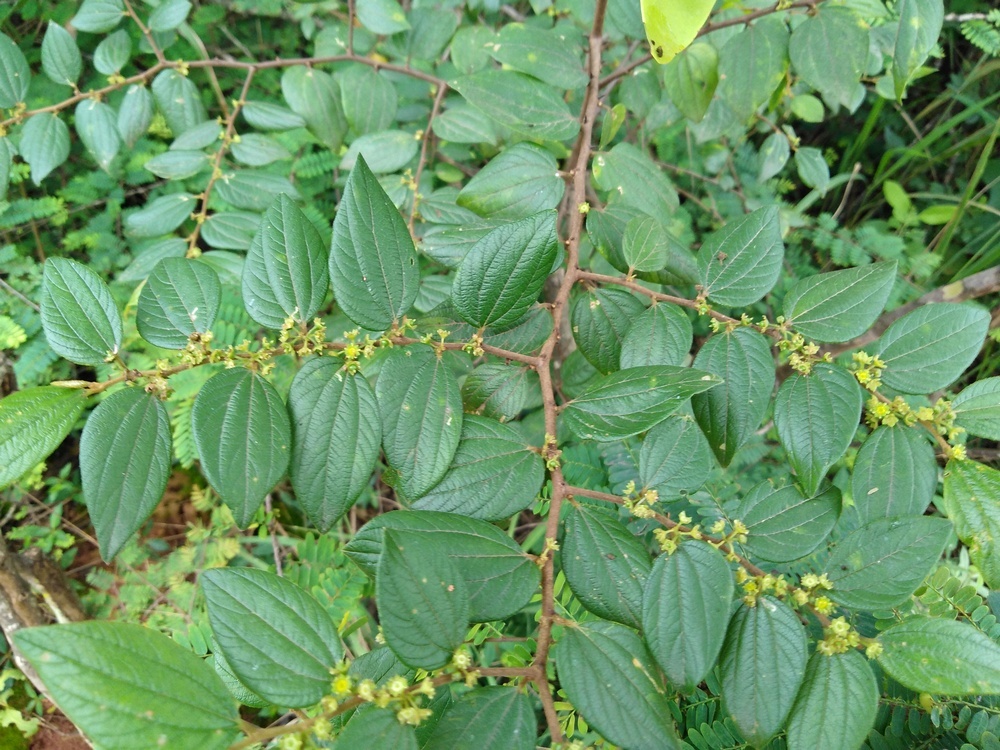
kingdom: Plantae
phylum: Tracheophyta
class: Magnoliopsida
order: Rosales
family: Rhamnaceae
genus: Ziziphus
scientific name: Ziziphus oenopolia
